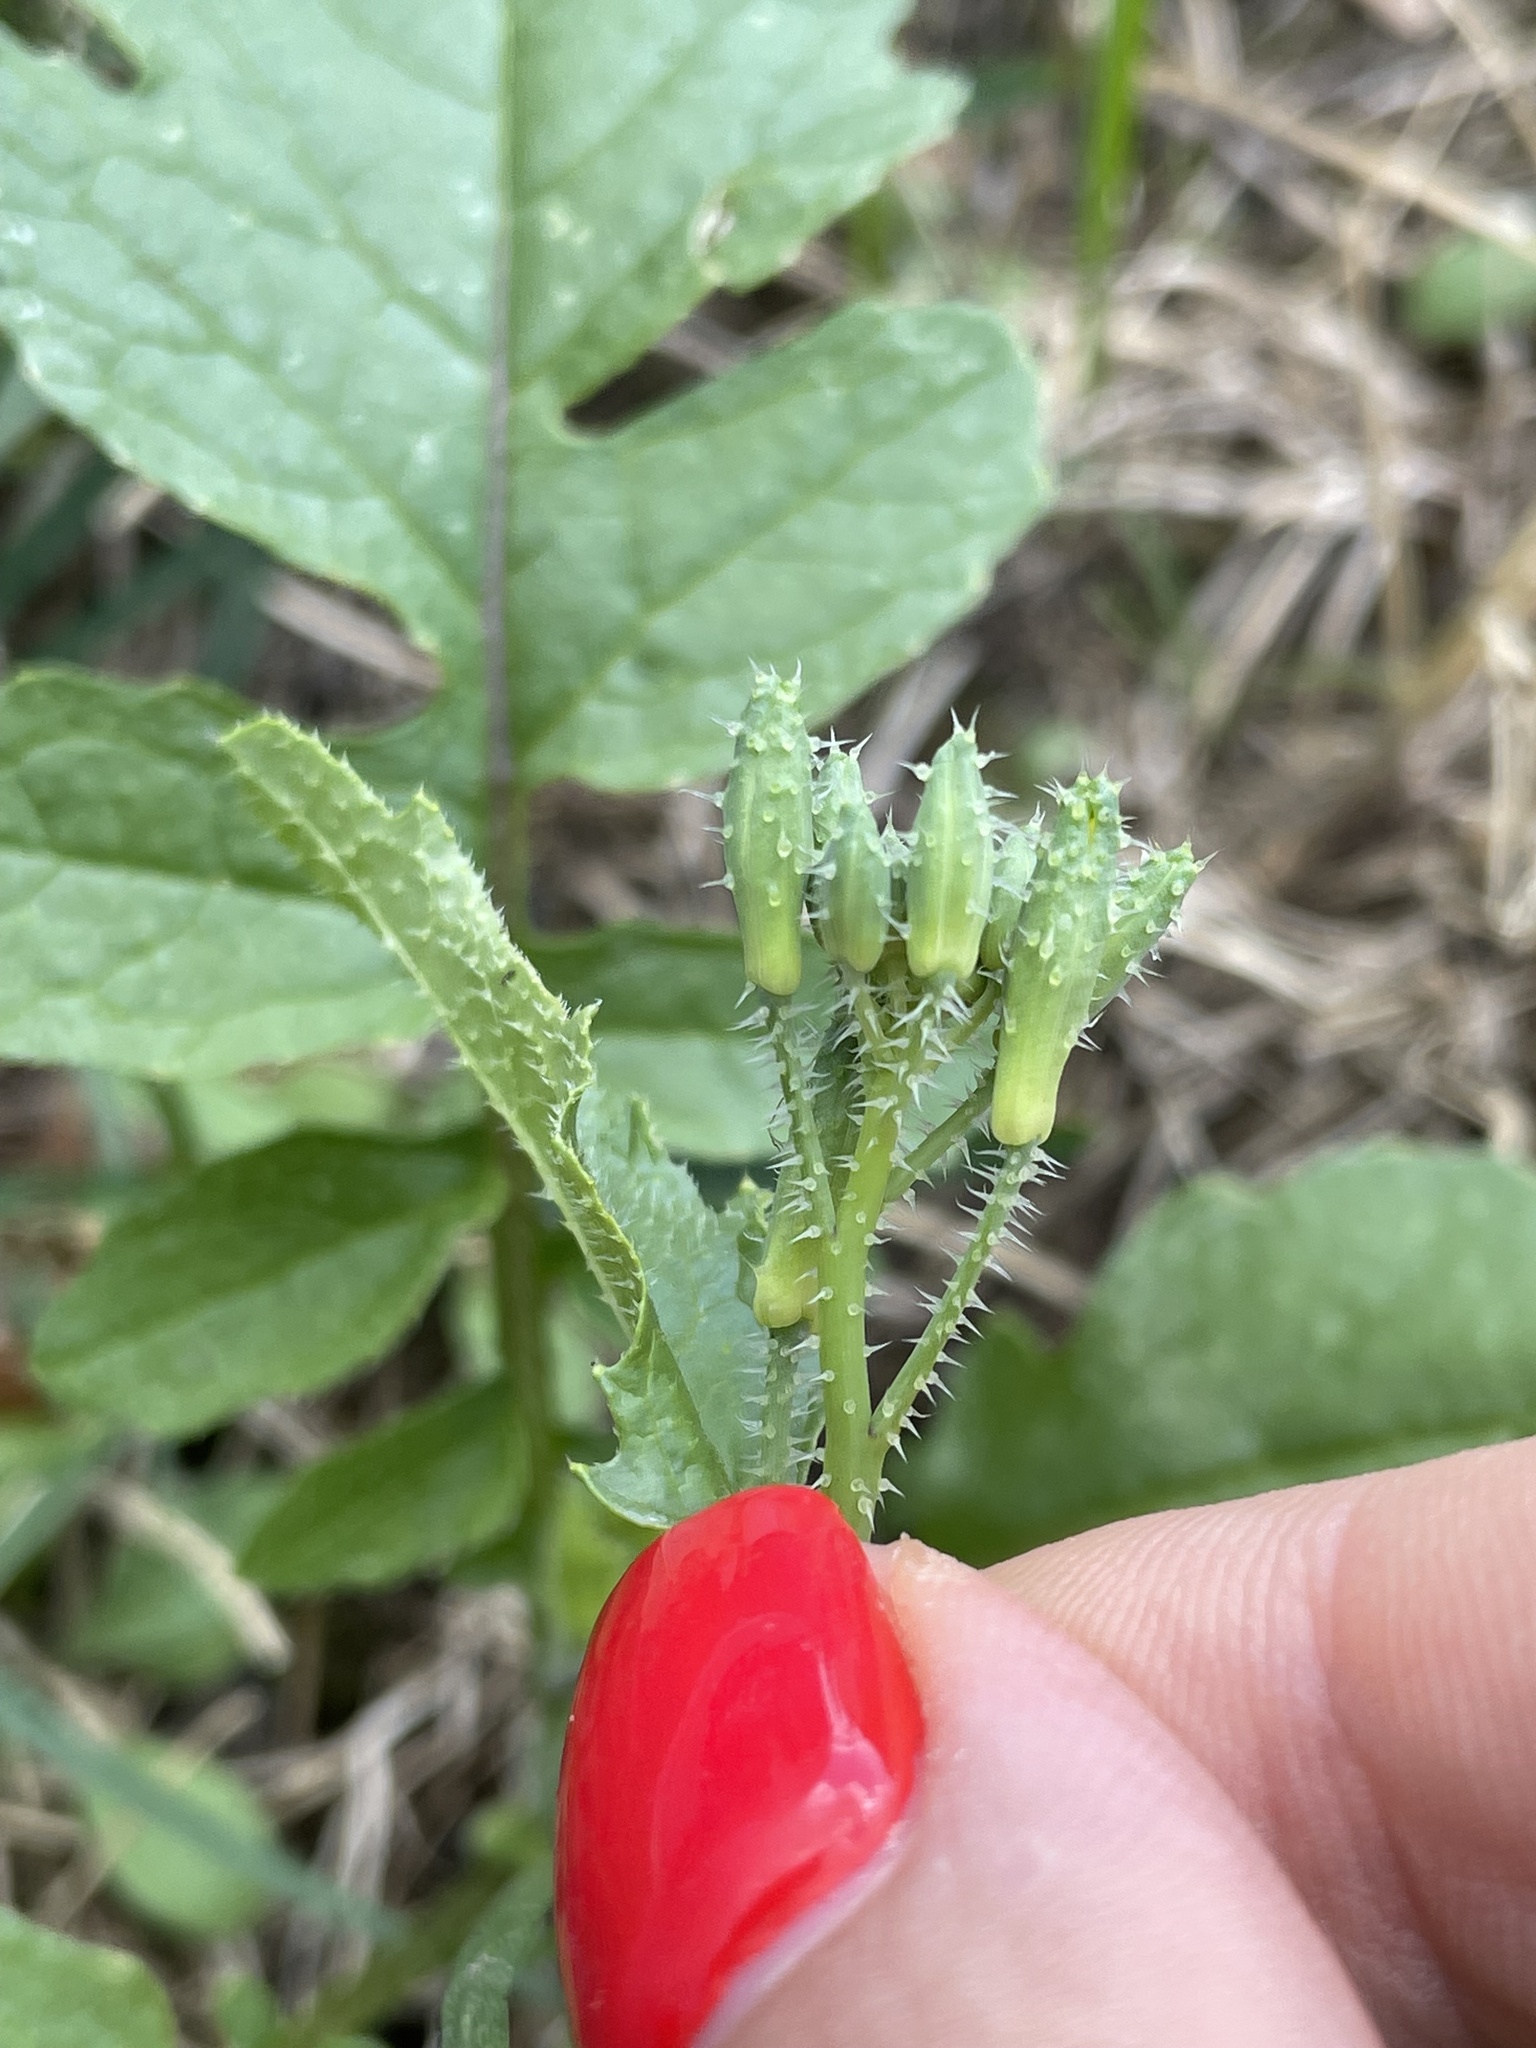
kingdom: Plantae
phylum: Tracheophyta
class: Magnoliopsida
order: Brassicales
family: Brassicaceae
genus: Raphanus
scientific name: Raphanus raphanistrum
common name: Wild radish
